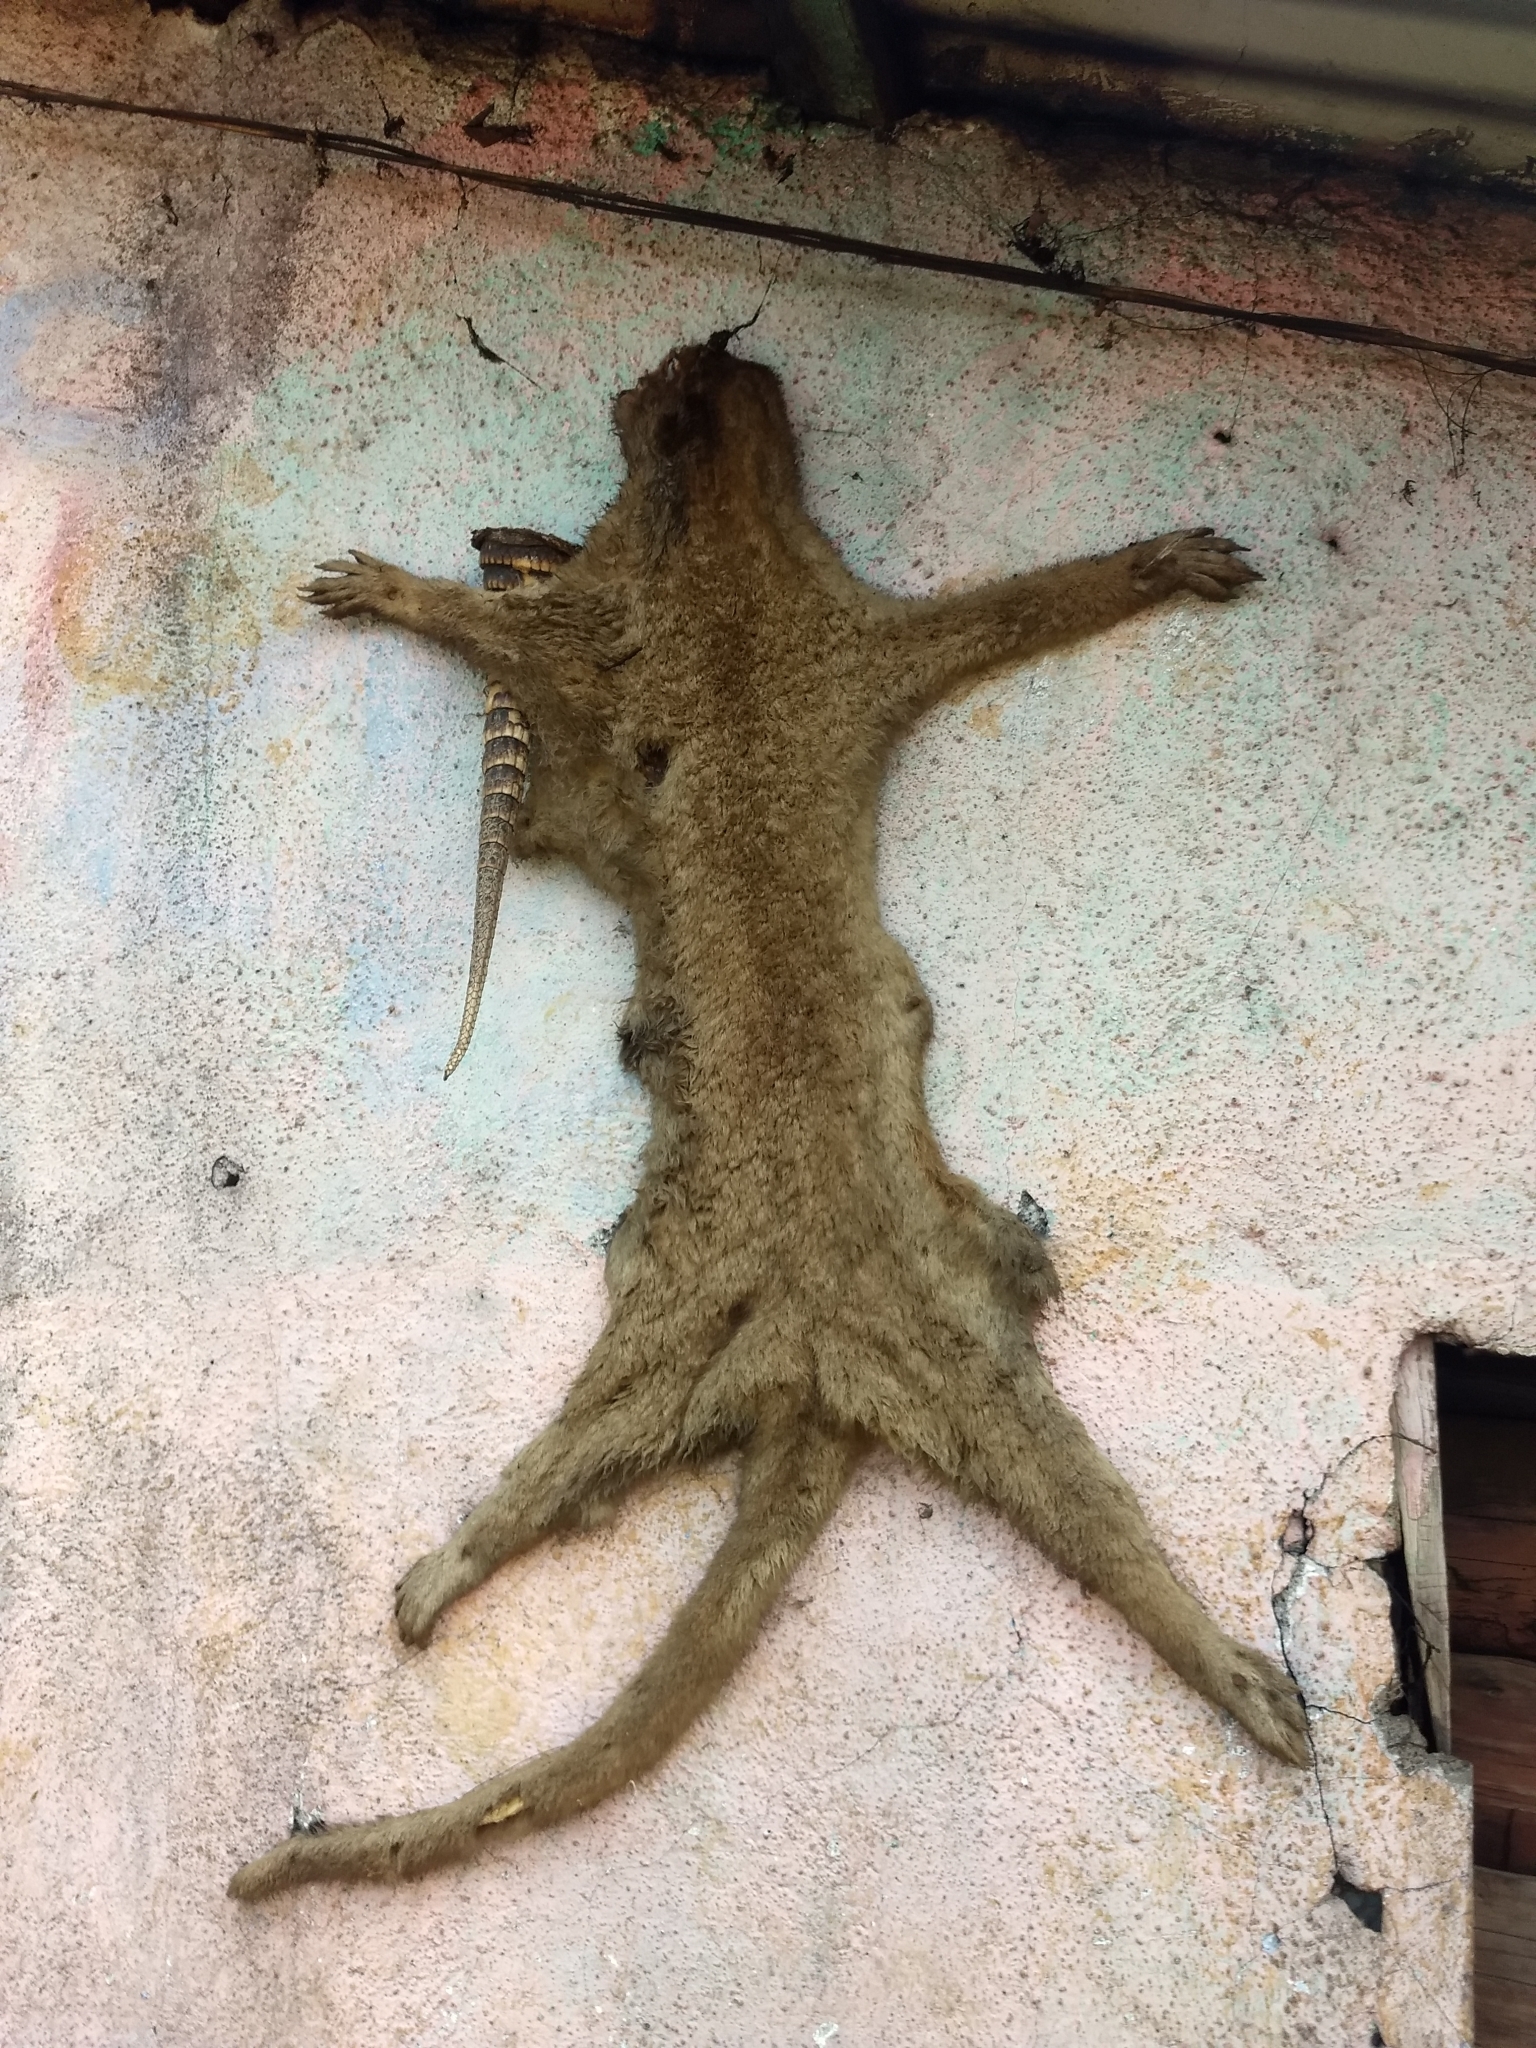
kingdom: Animalia
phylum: Chordata
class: Mammalia
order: Carnivora
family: Procyonidae
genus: Potos
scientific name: Potos flavus
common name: Kinkajou
